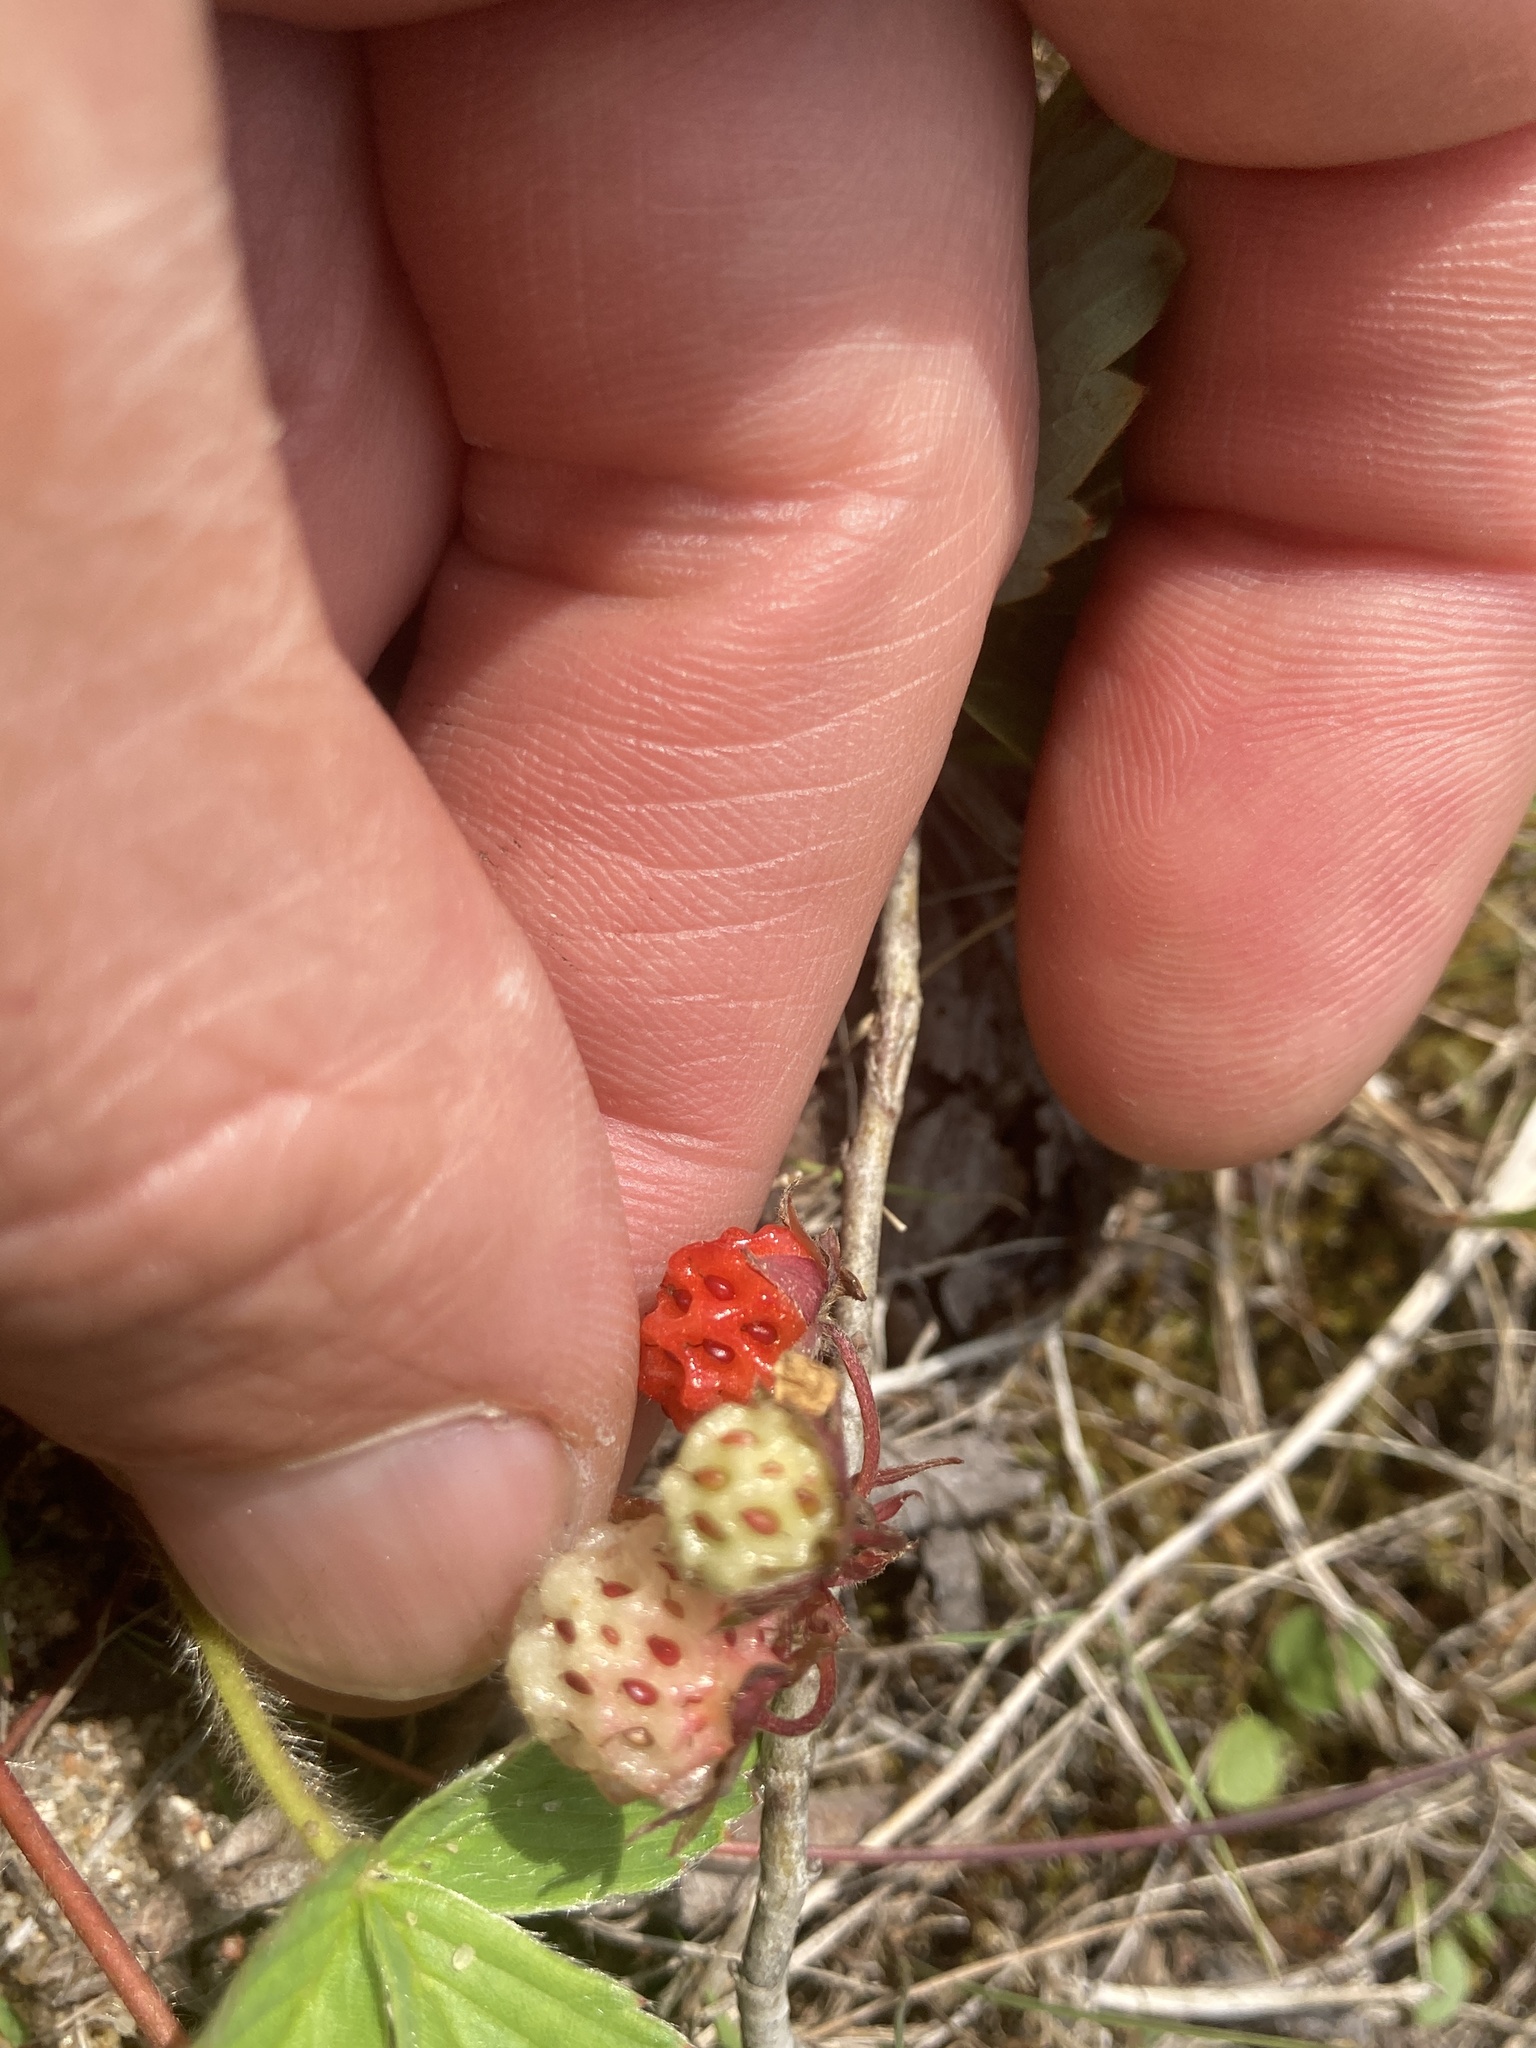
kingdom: Plantae
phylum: Tracheophyta
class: Magnoliopsida
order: Rosales
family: Rosaceae
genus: Fragaria
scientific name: Fragaria virginiana
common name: Thickleaved wild strawberry
